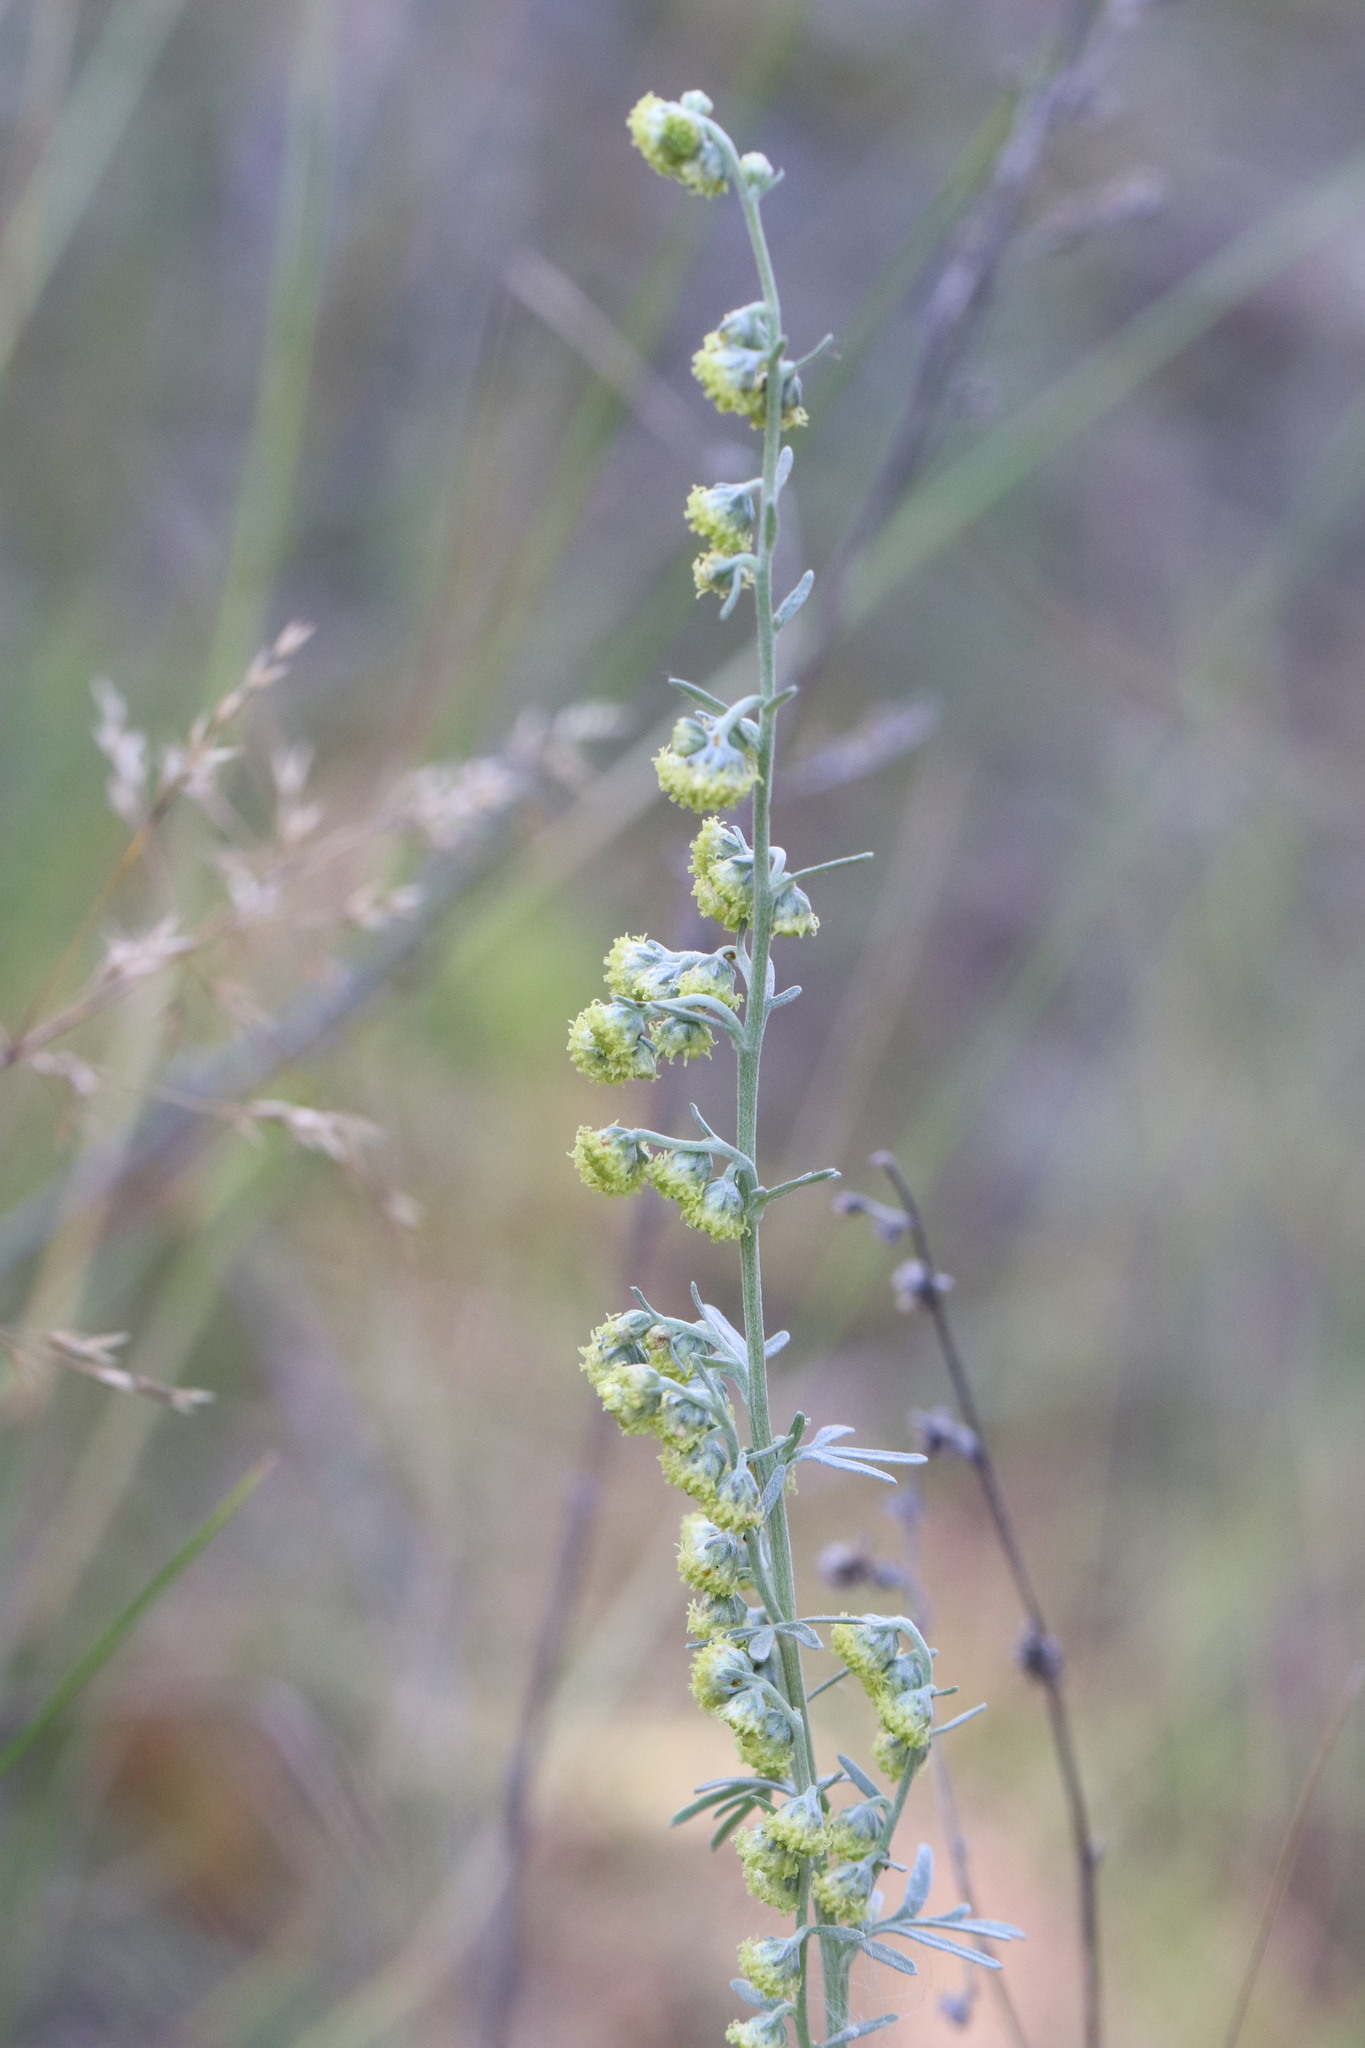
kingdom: Plantae
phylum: Tracheophyta
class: Magnoliopsida
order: Asterales
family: Asteraceae
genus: Artemisia
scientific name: Artemisia absinthium
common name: Wormwood
